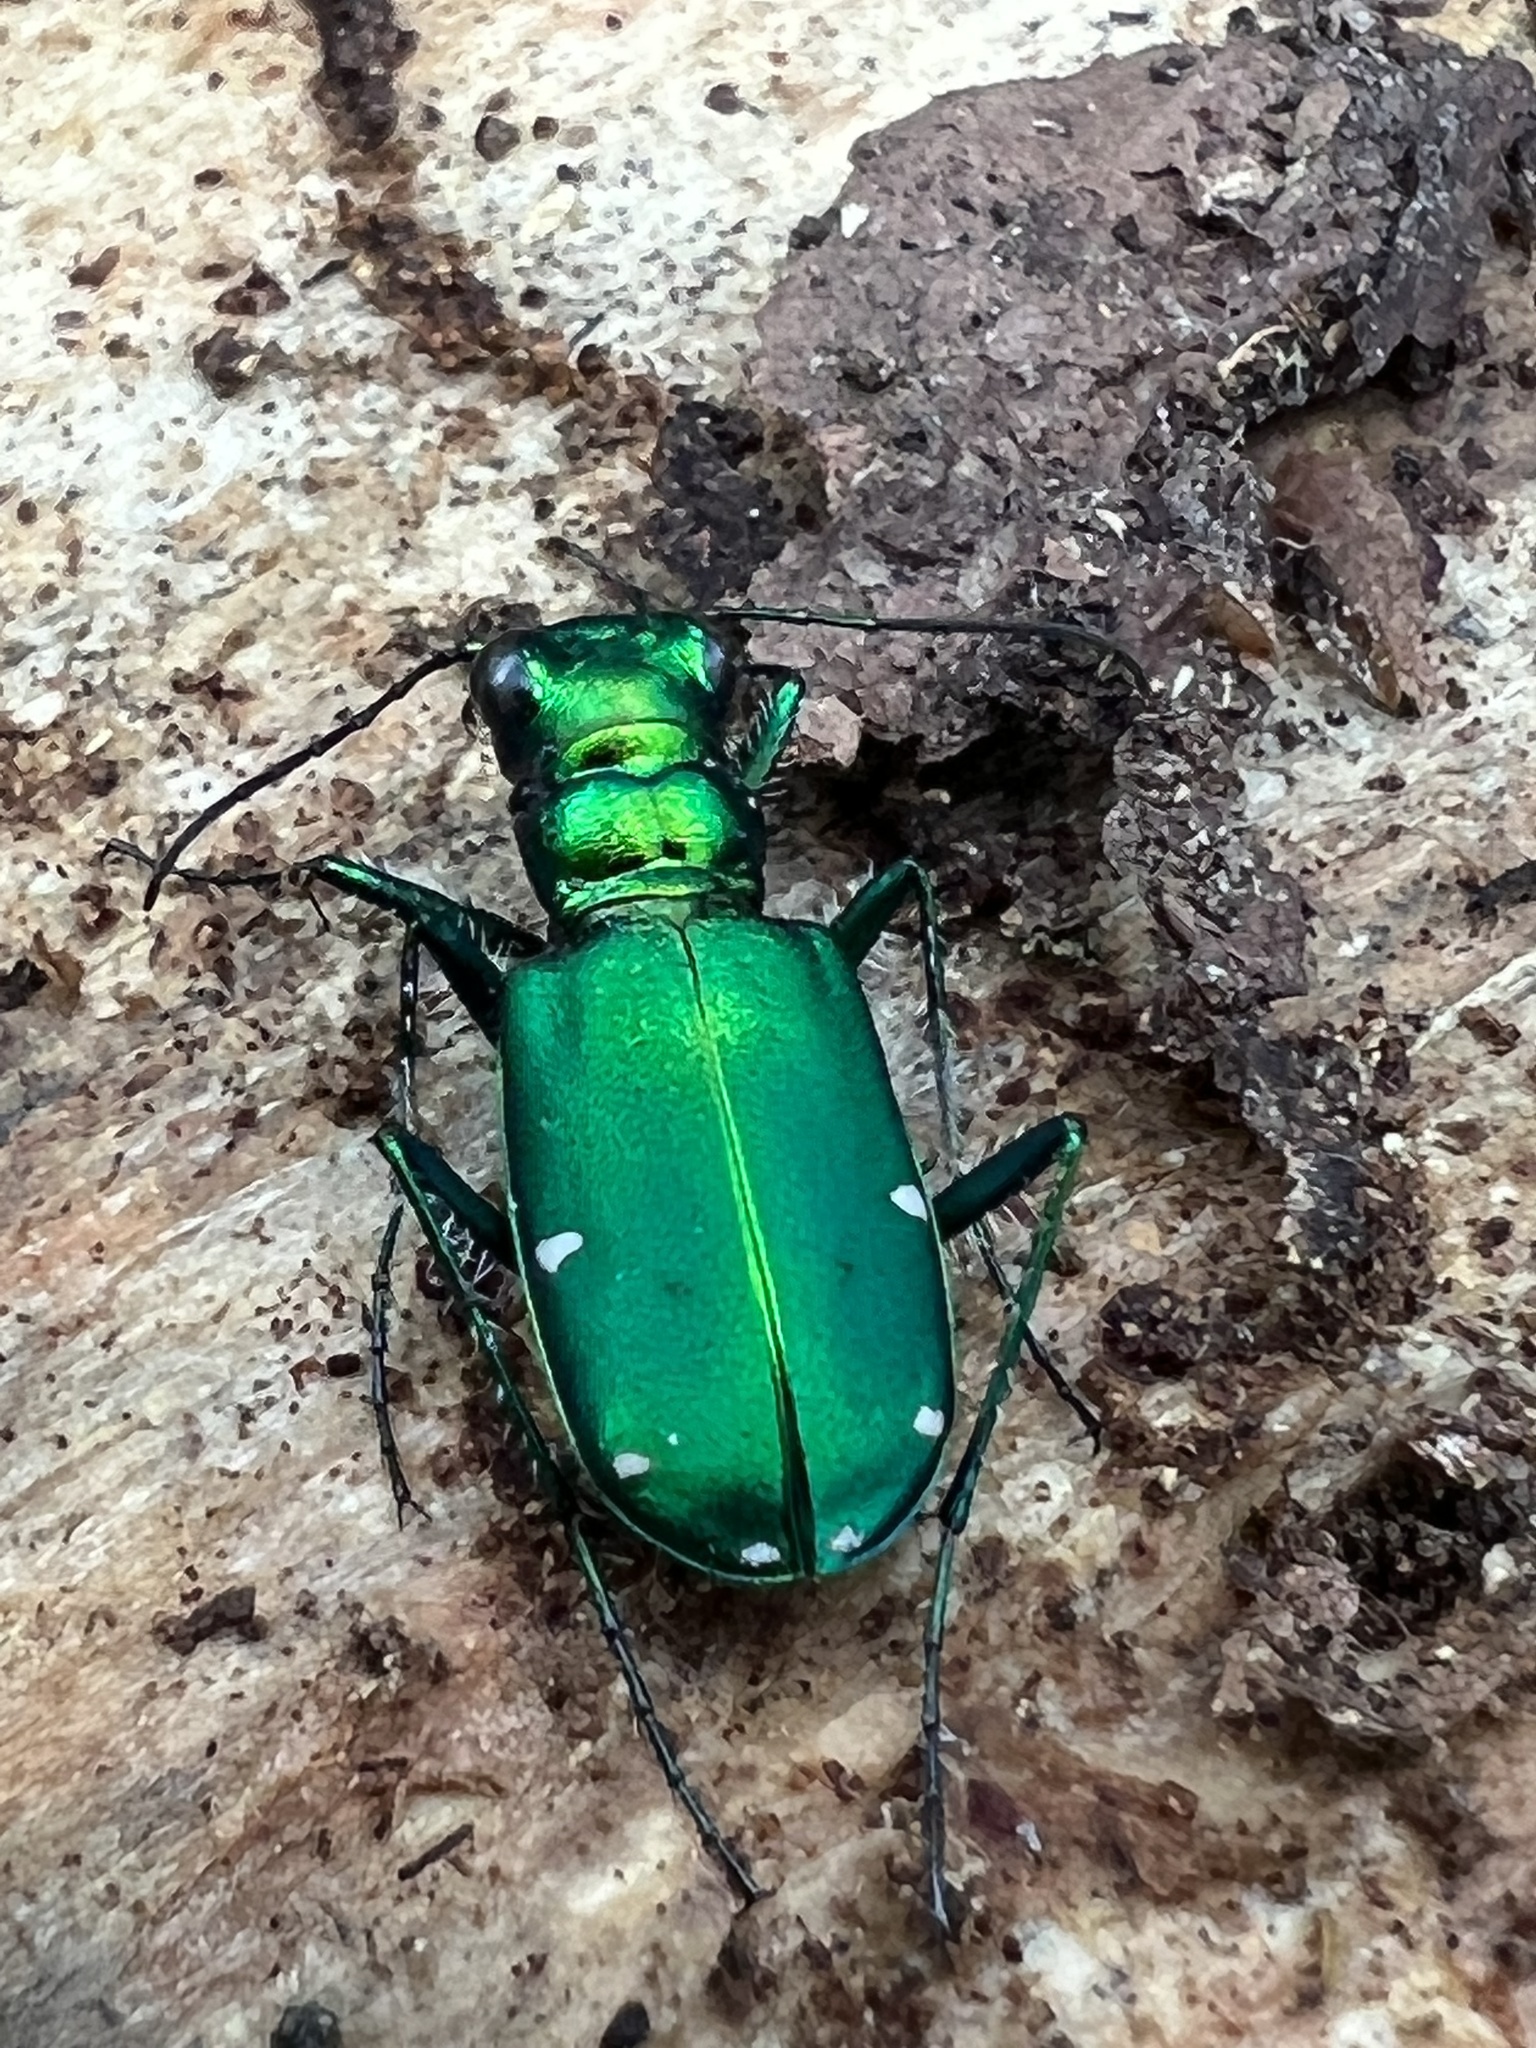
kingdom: Animalia
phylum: Arthropoda
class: Insecta
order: Coleoptera
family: Carabidae
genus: Cicindela
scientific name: Cicindela sexguttata
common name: Six-spotted tiger beetle
